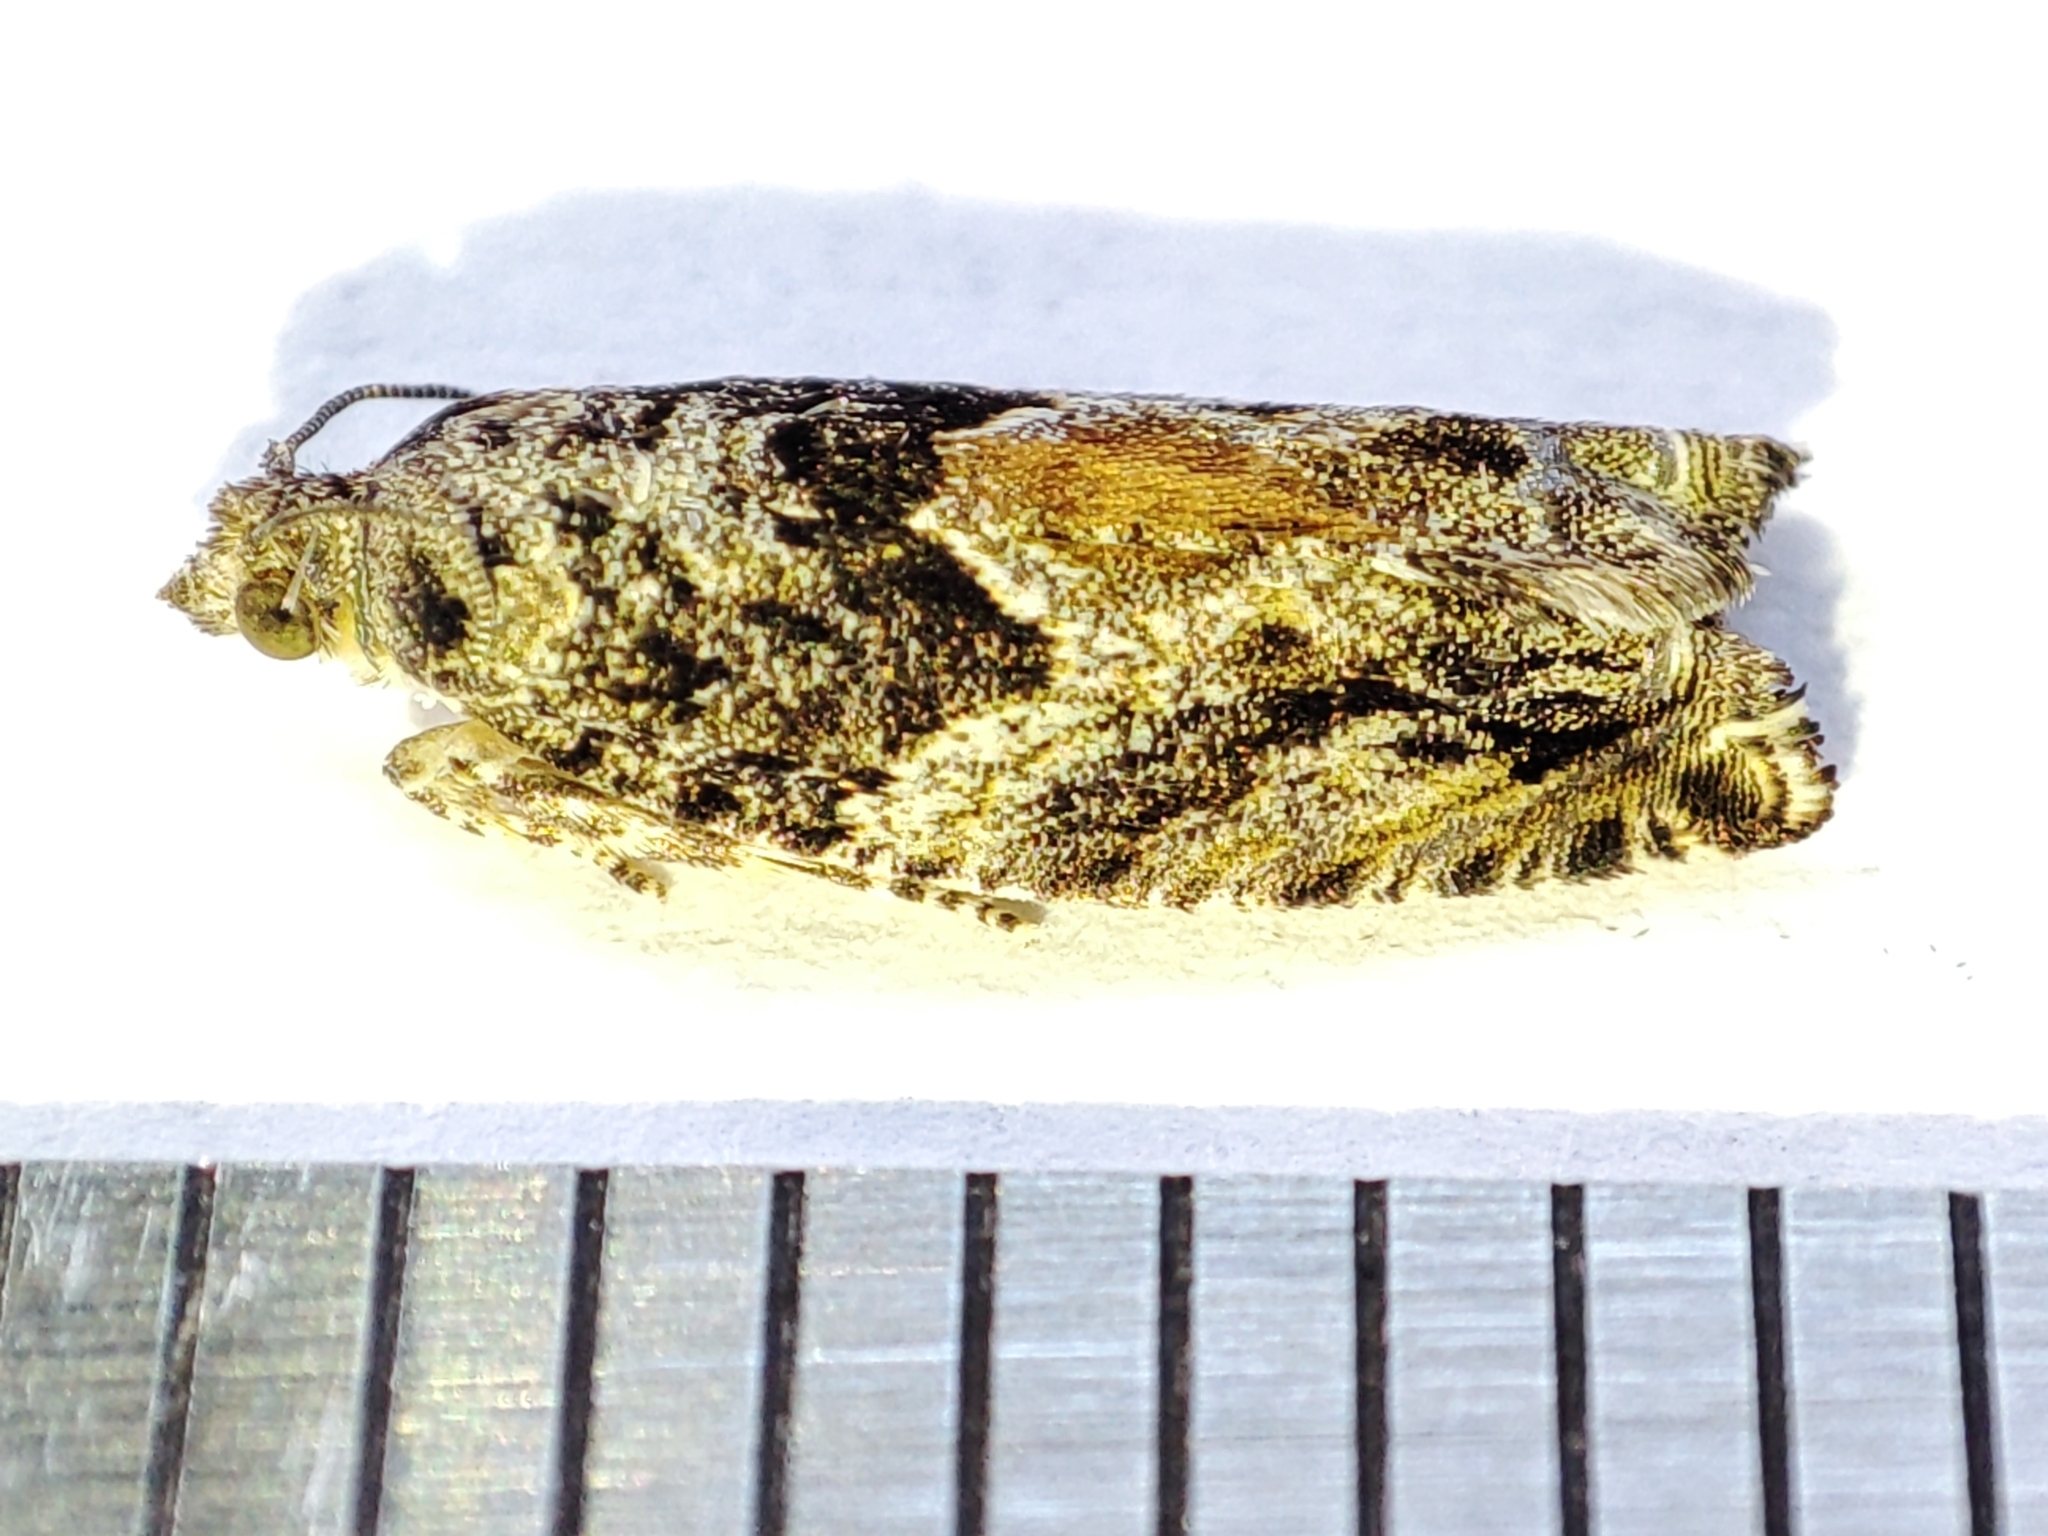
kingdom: Animalia
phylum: Arthropoda
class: Insecta
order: Lepidoptera
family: Tortricidae
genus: Epinotia
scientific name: Epinotia nisella
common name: Grey poplar bell
